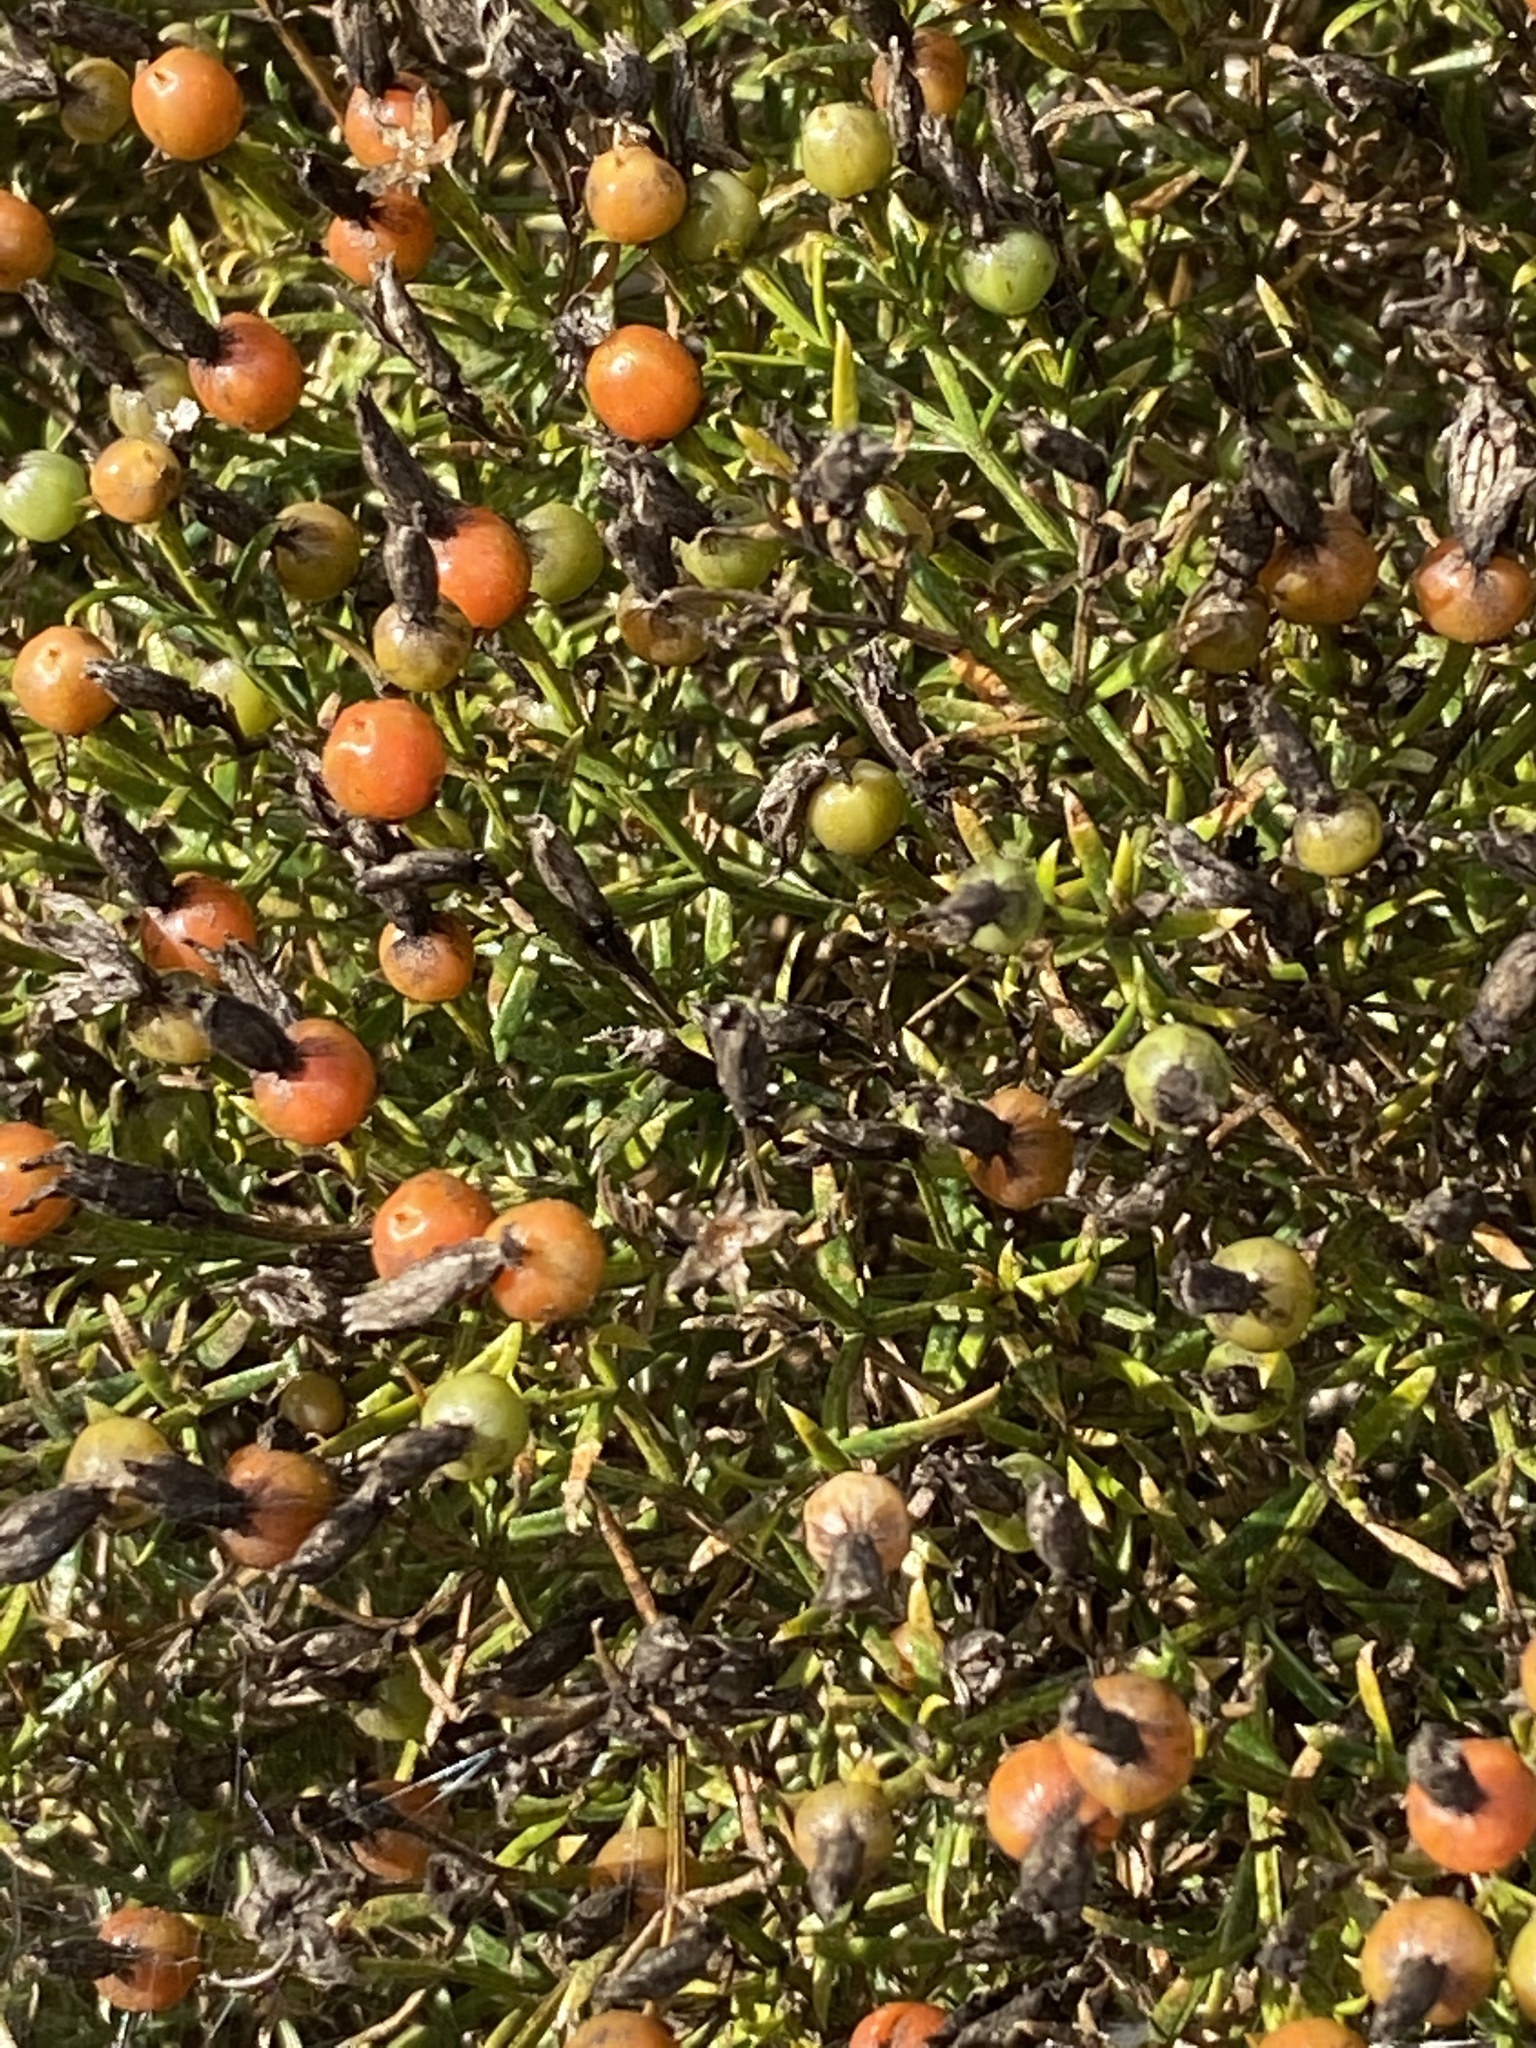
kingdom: Plantae
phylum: Tracheophyta
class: Magnoliopsida
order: Gentianales
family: Gentianaceae
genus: Chironia
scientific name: Chironia baccifera
